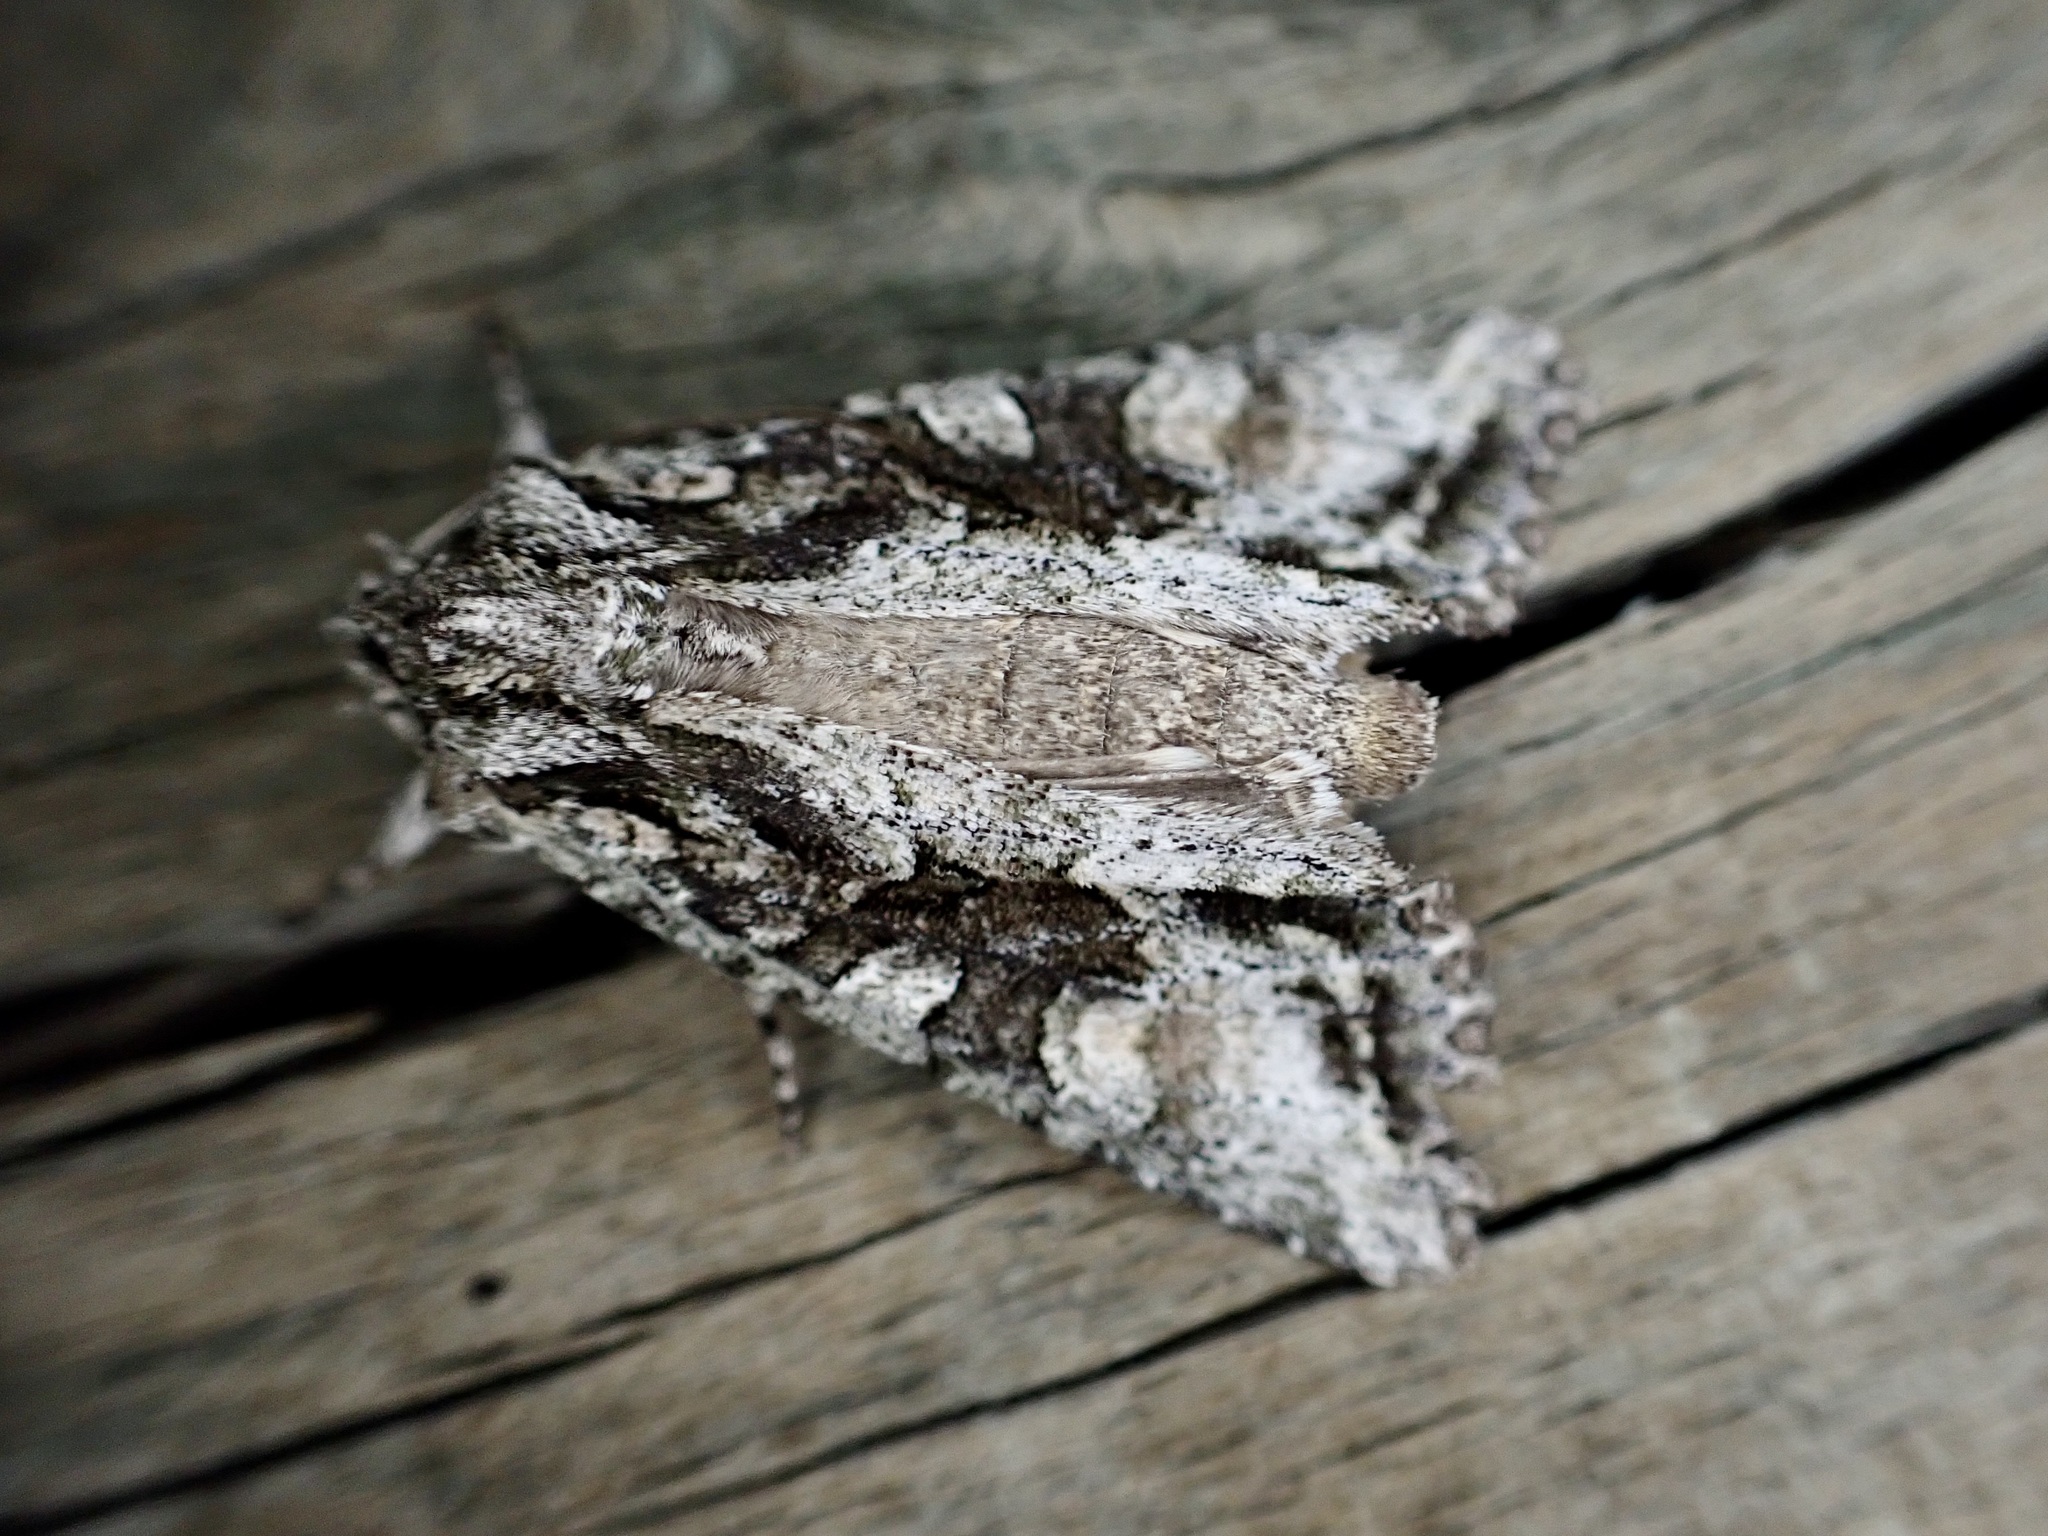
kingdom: Animalia
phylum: Arthropoda
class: Insecta
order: Lepidoptera
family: Noctuidae
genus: Ichneutica
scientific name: Ichneutica mutans
